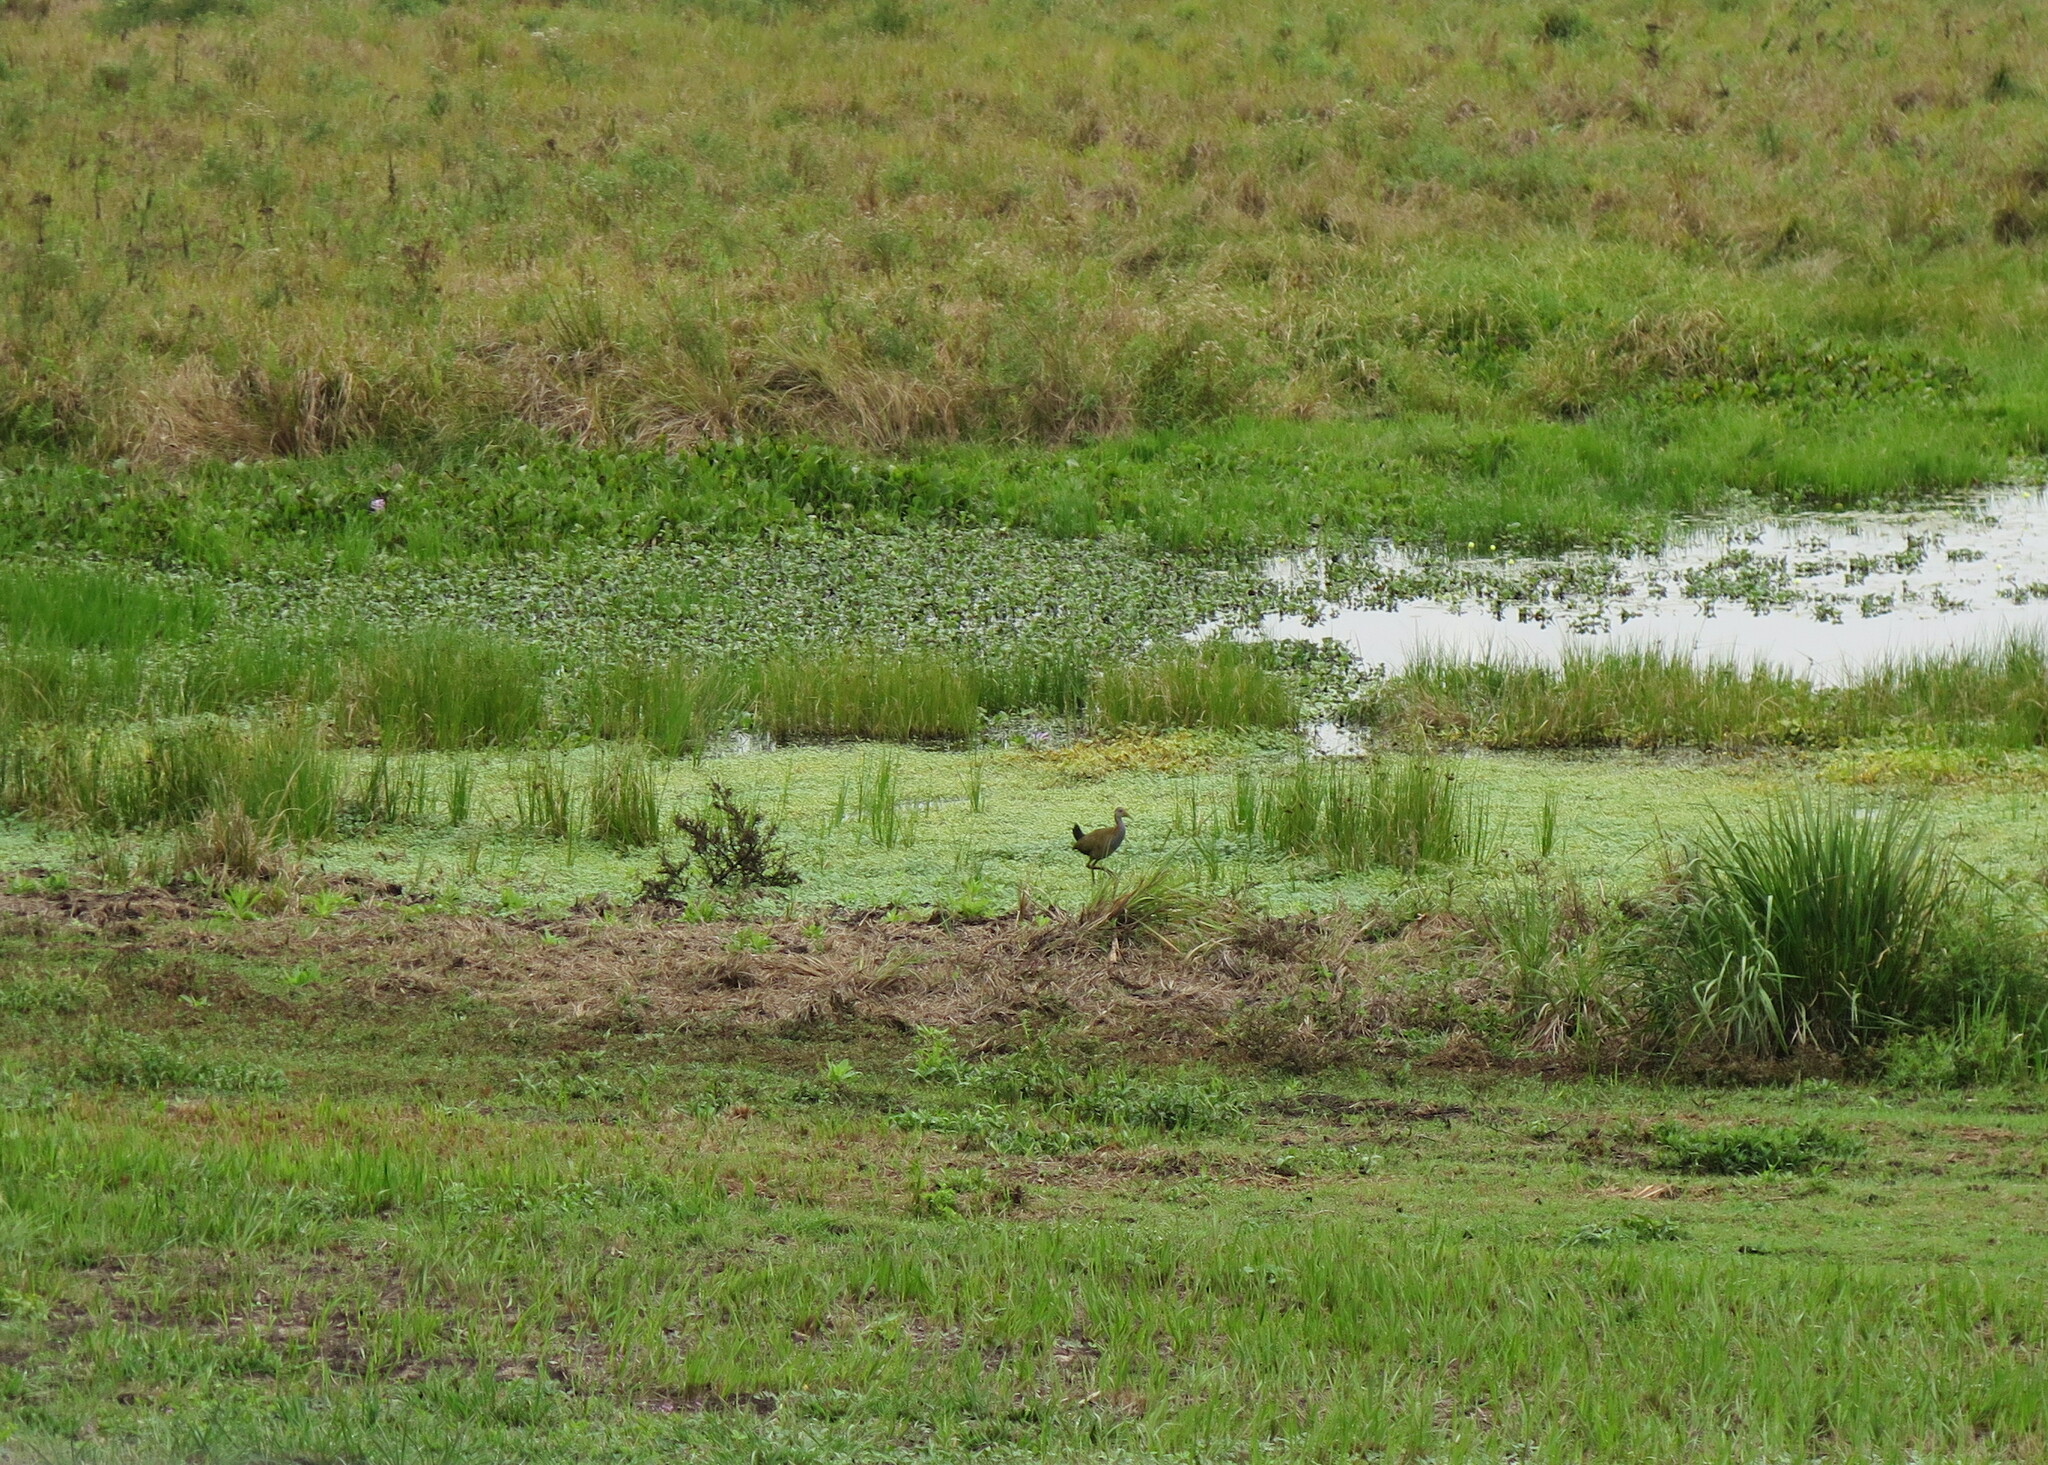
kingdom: Animalia
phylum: Chordata
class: Aves
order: Gruiformes
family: Rallidae
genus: Aramides
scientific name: Aramides ypecaha
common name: Giant wood rail
